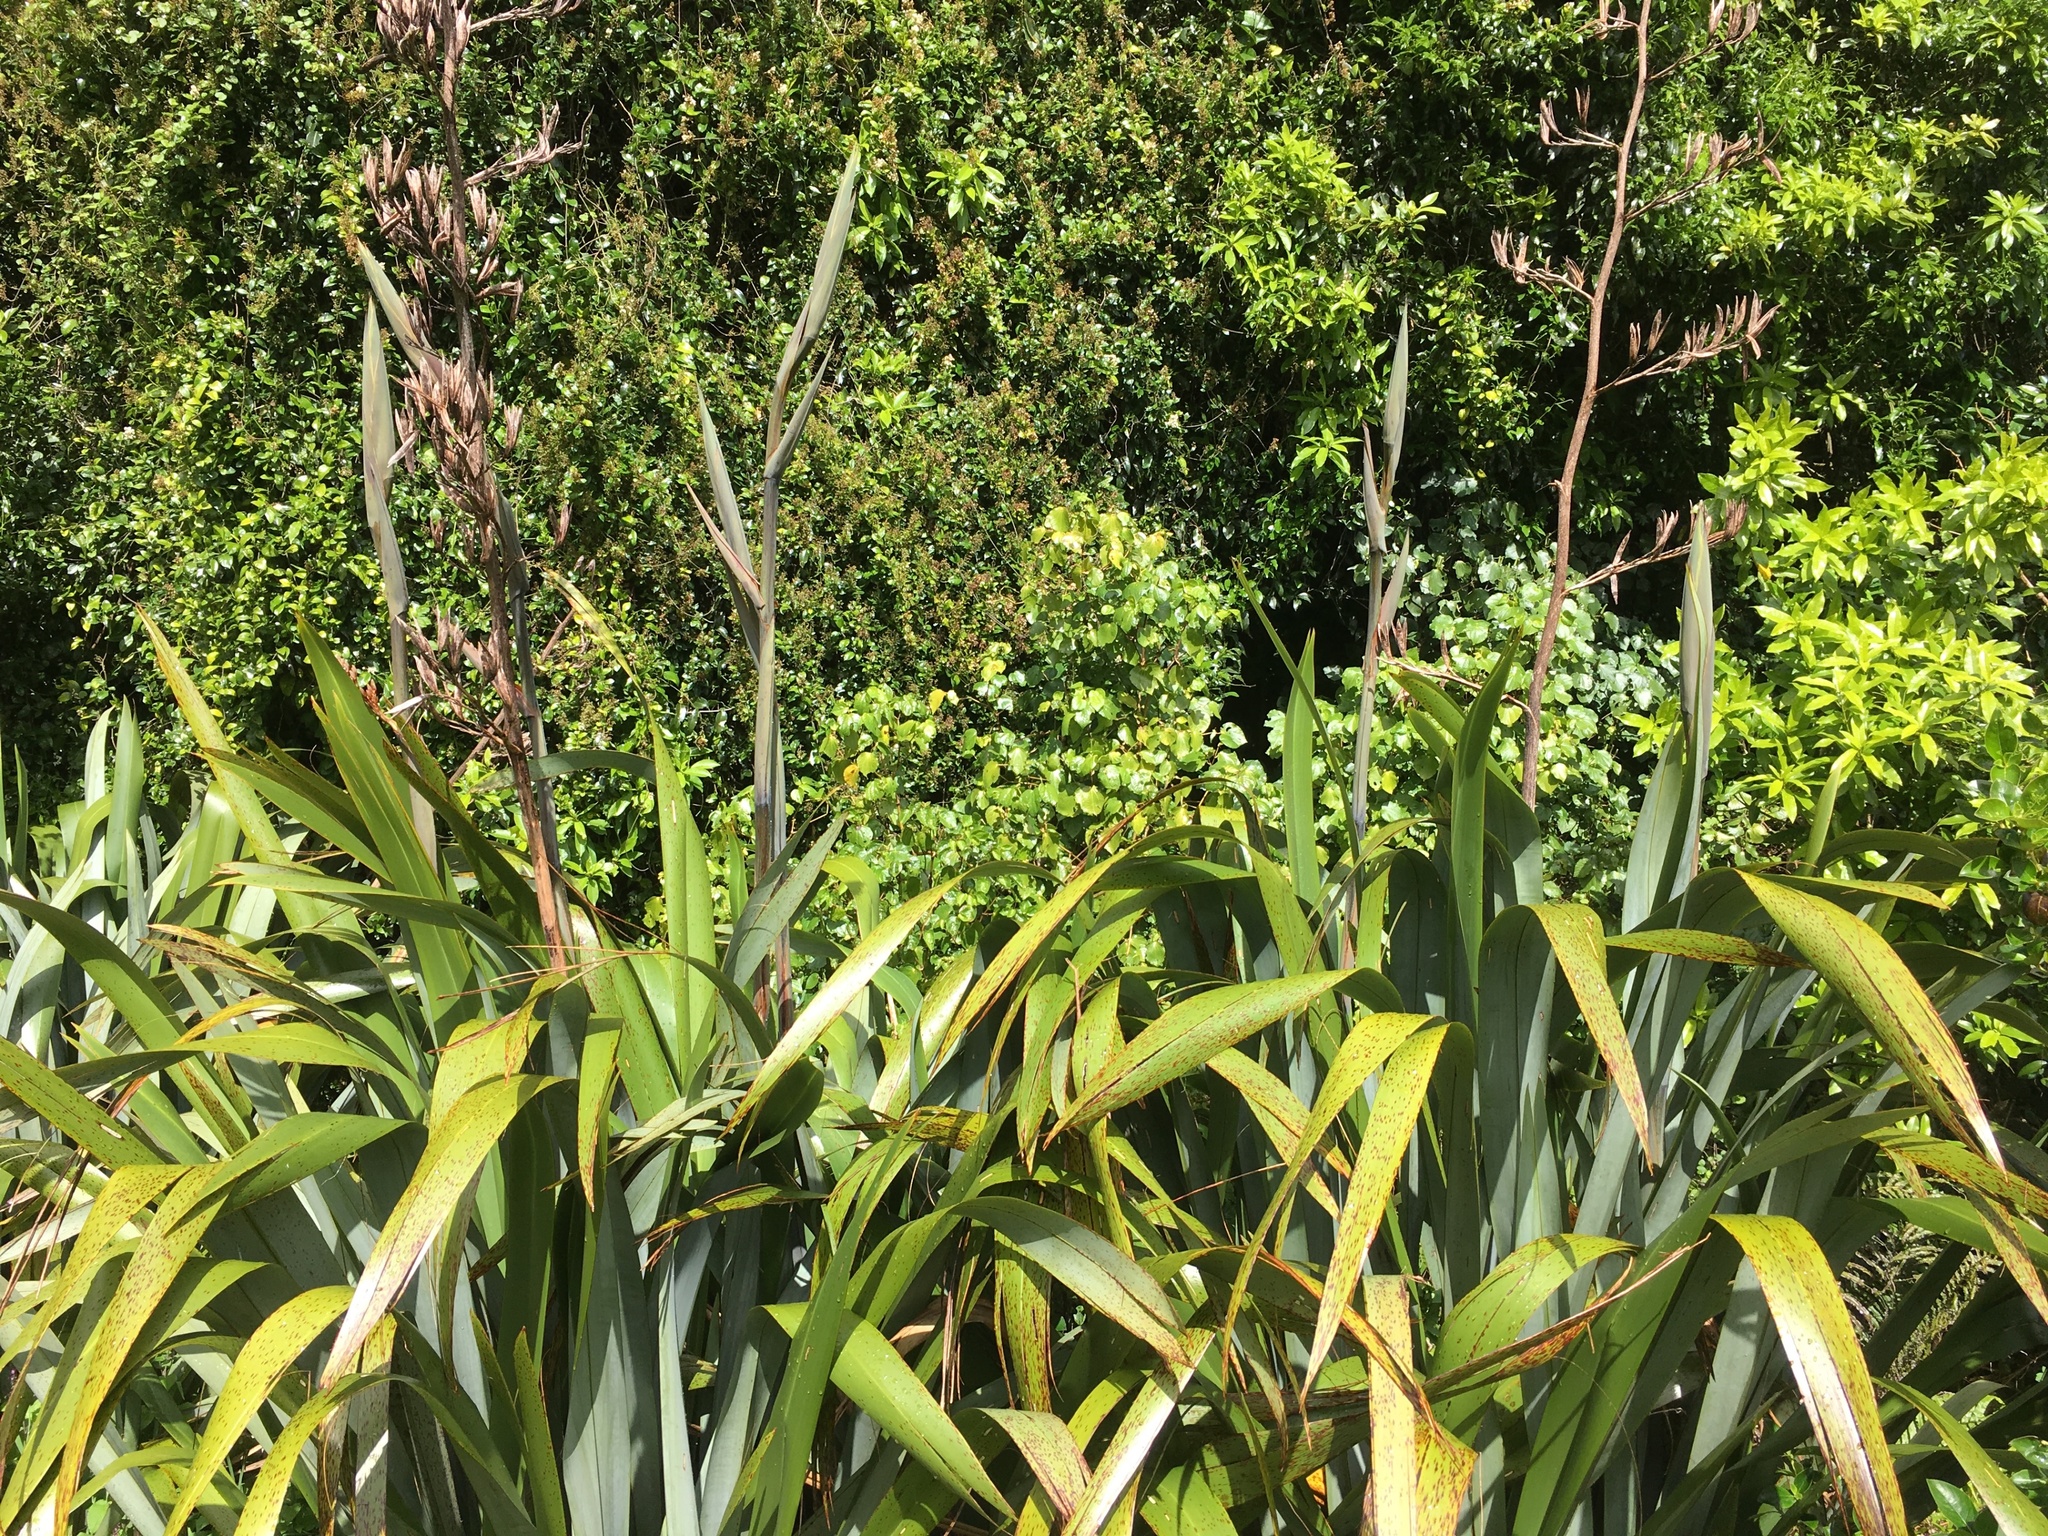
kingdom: Plantae
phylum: Tracheophyta
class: Liliopsida
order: Asparagales
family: Asphodelaceae
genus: Phormium
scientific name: Phormium tenax
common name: New zealand flax
